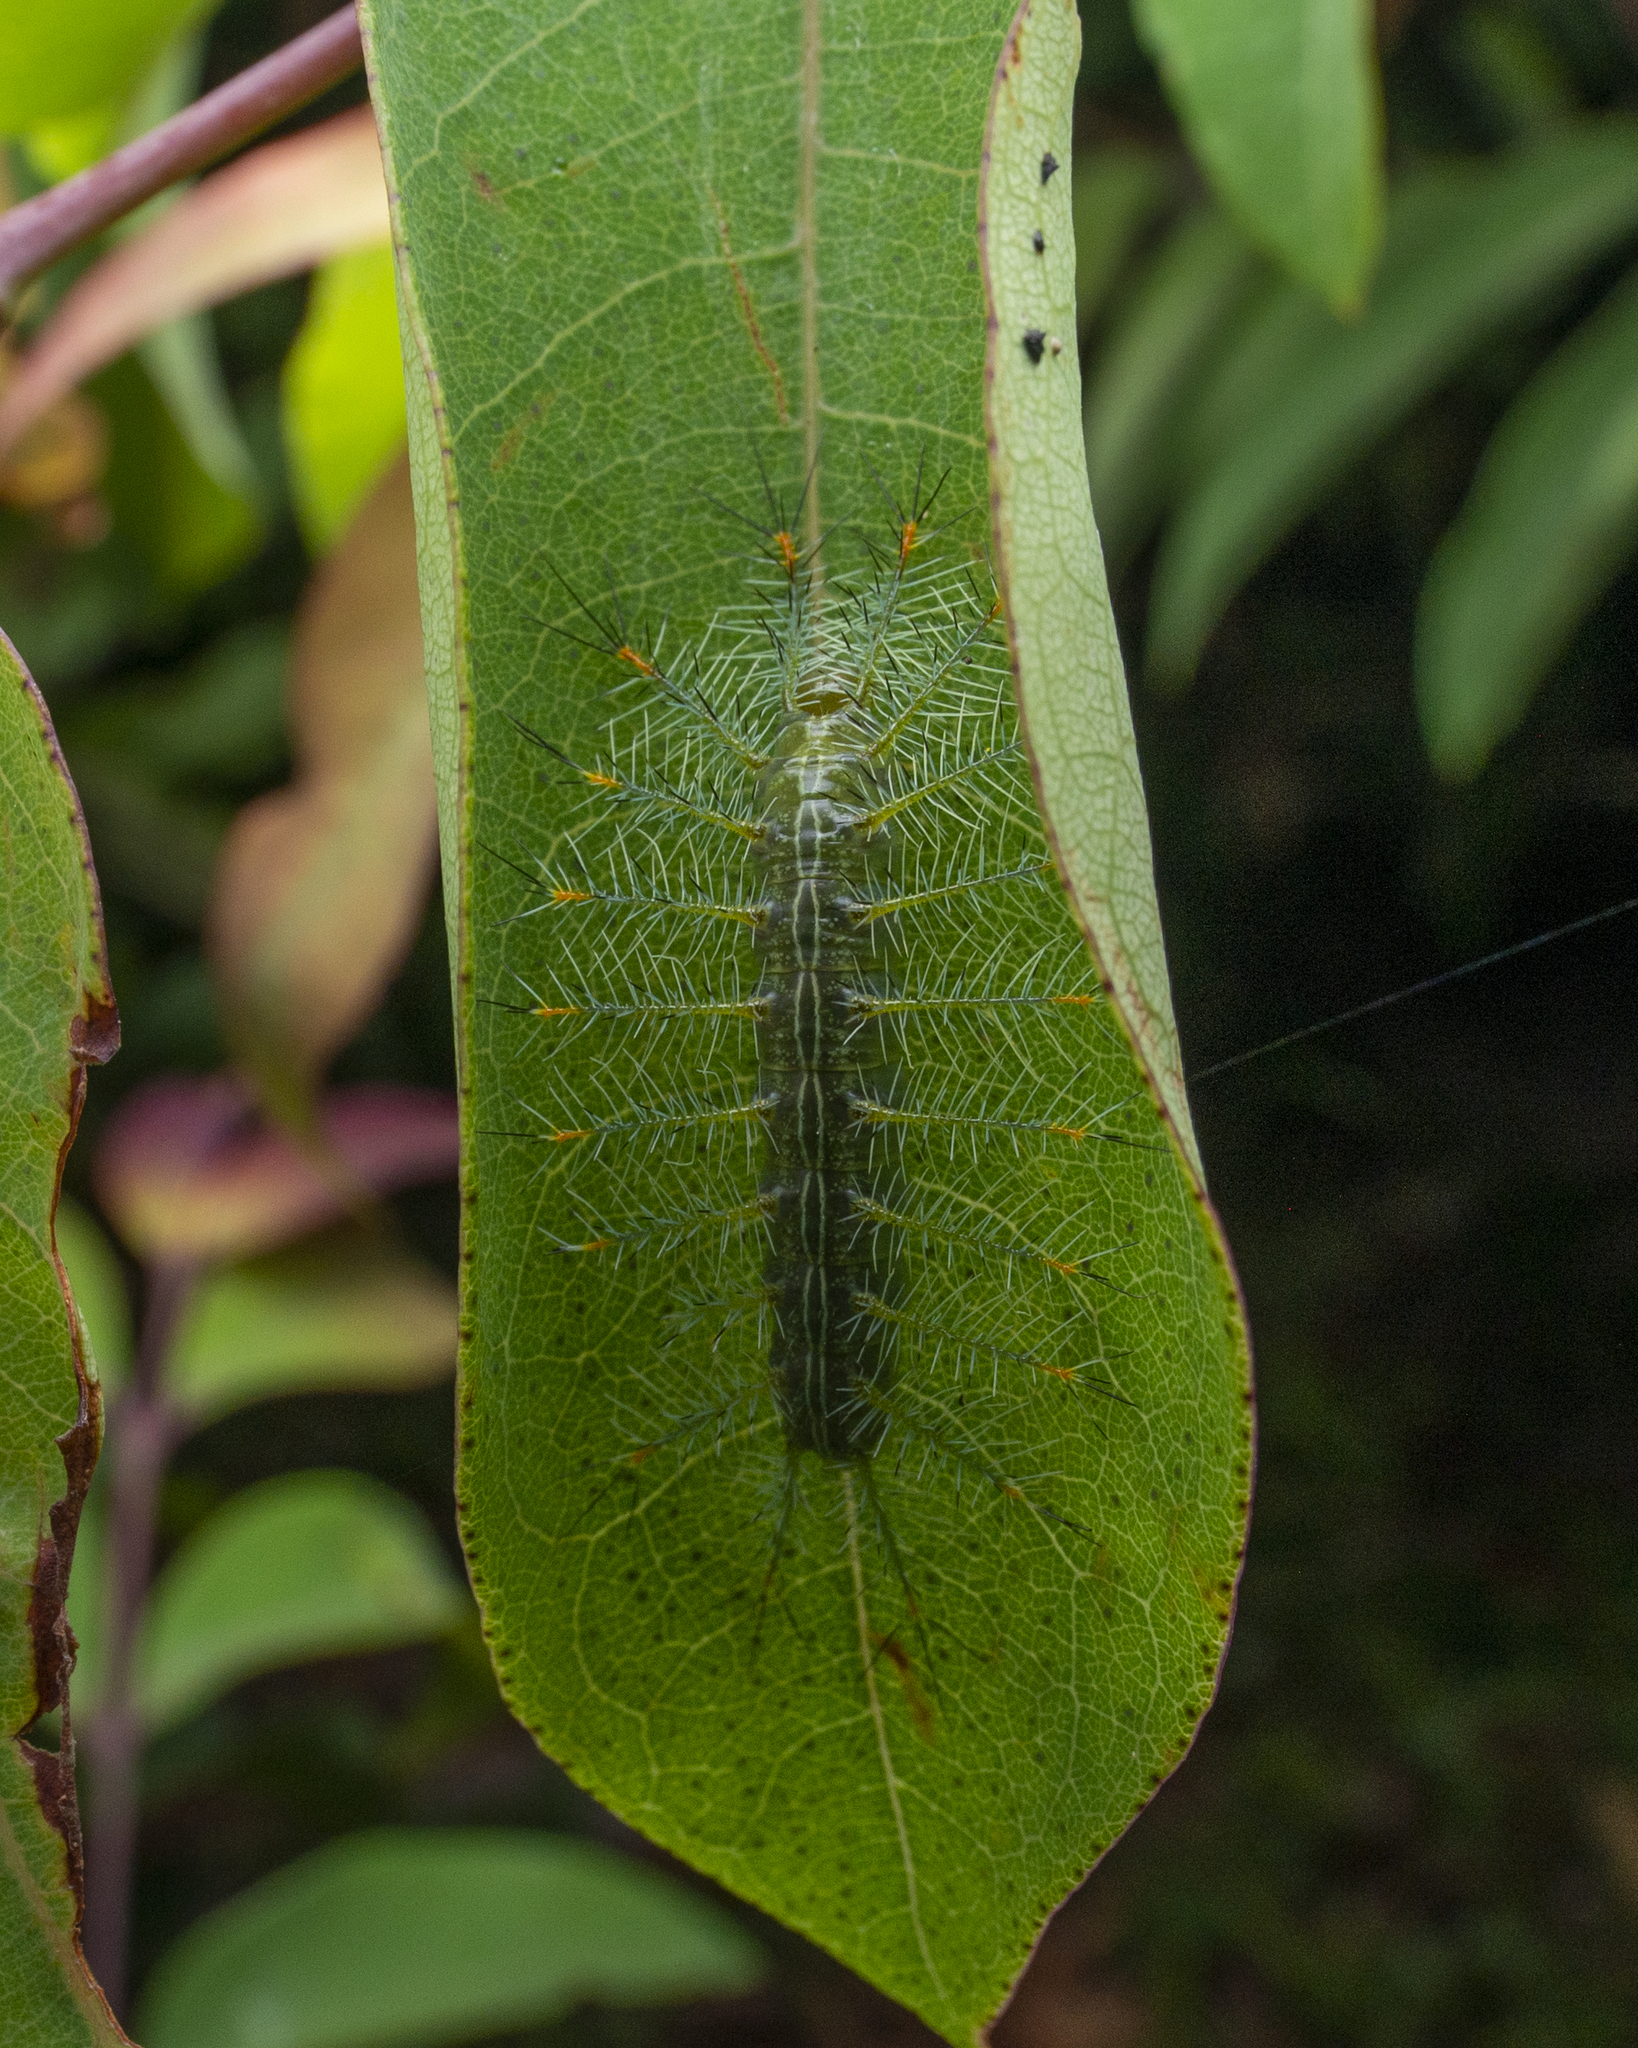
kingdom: Animalia
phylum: Arthropoda
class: Insecta
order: Lepidoptera
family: Nymphalidae
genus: Lexias
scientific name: Lexias pardalis
